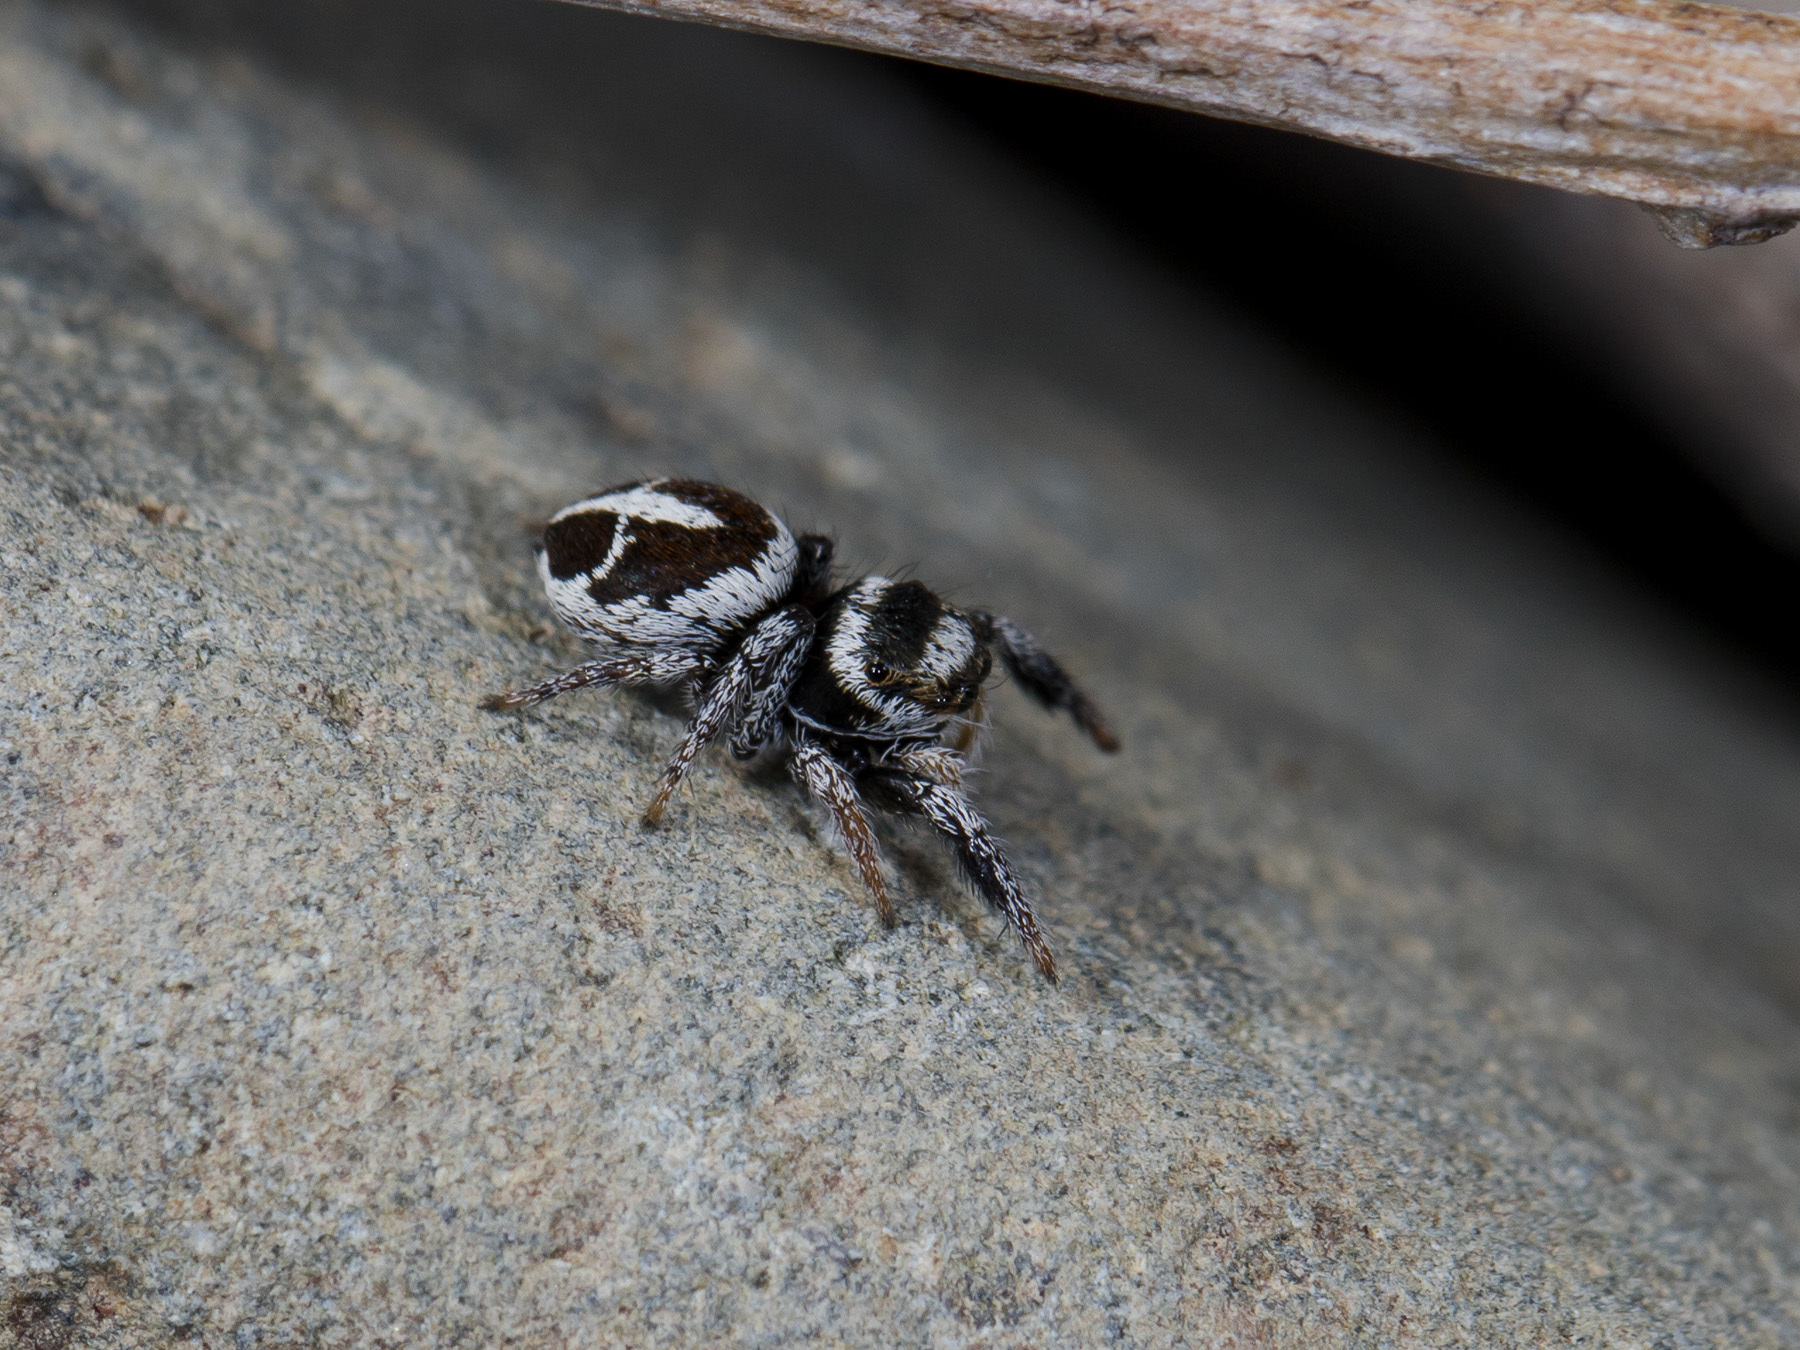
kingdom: Animalia
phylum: Arthropoda
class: Arachnida
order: Araneae
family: Salticidae
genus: Pellenes
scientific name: Pellenes geniculatus
